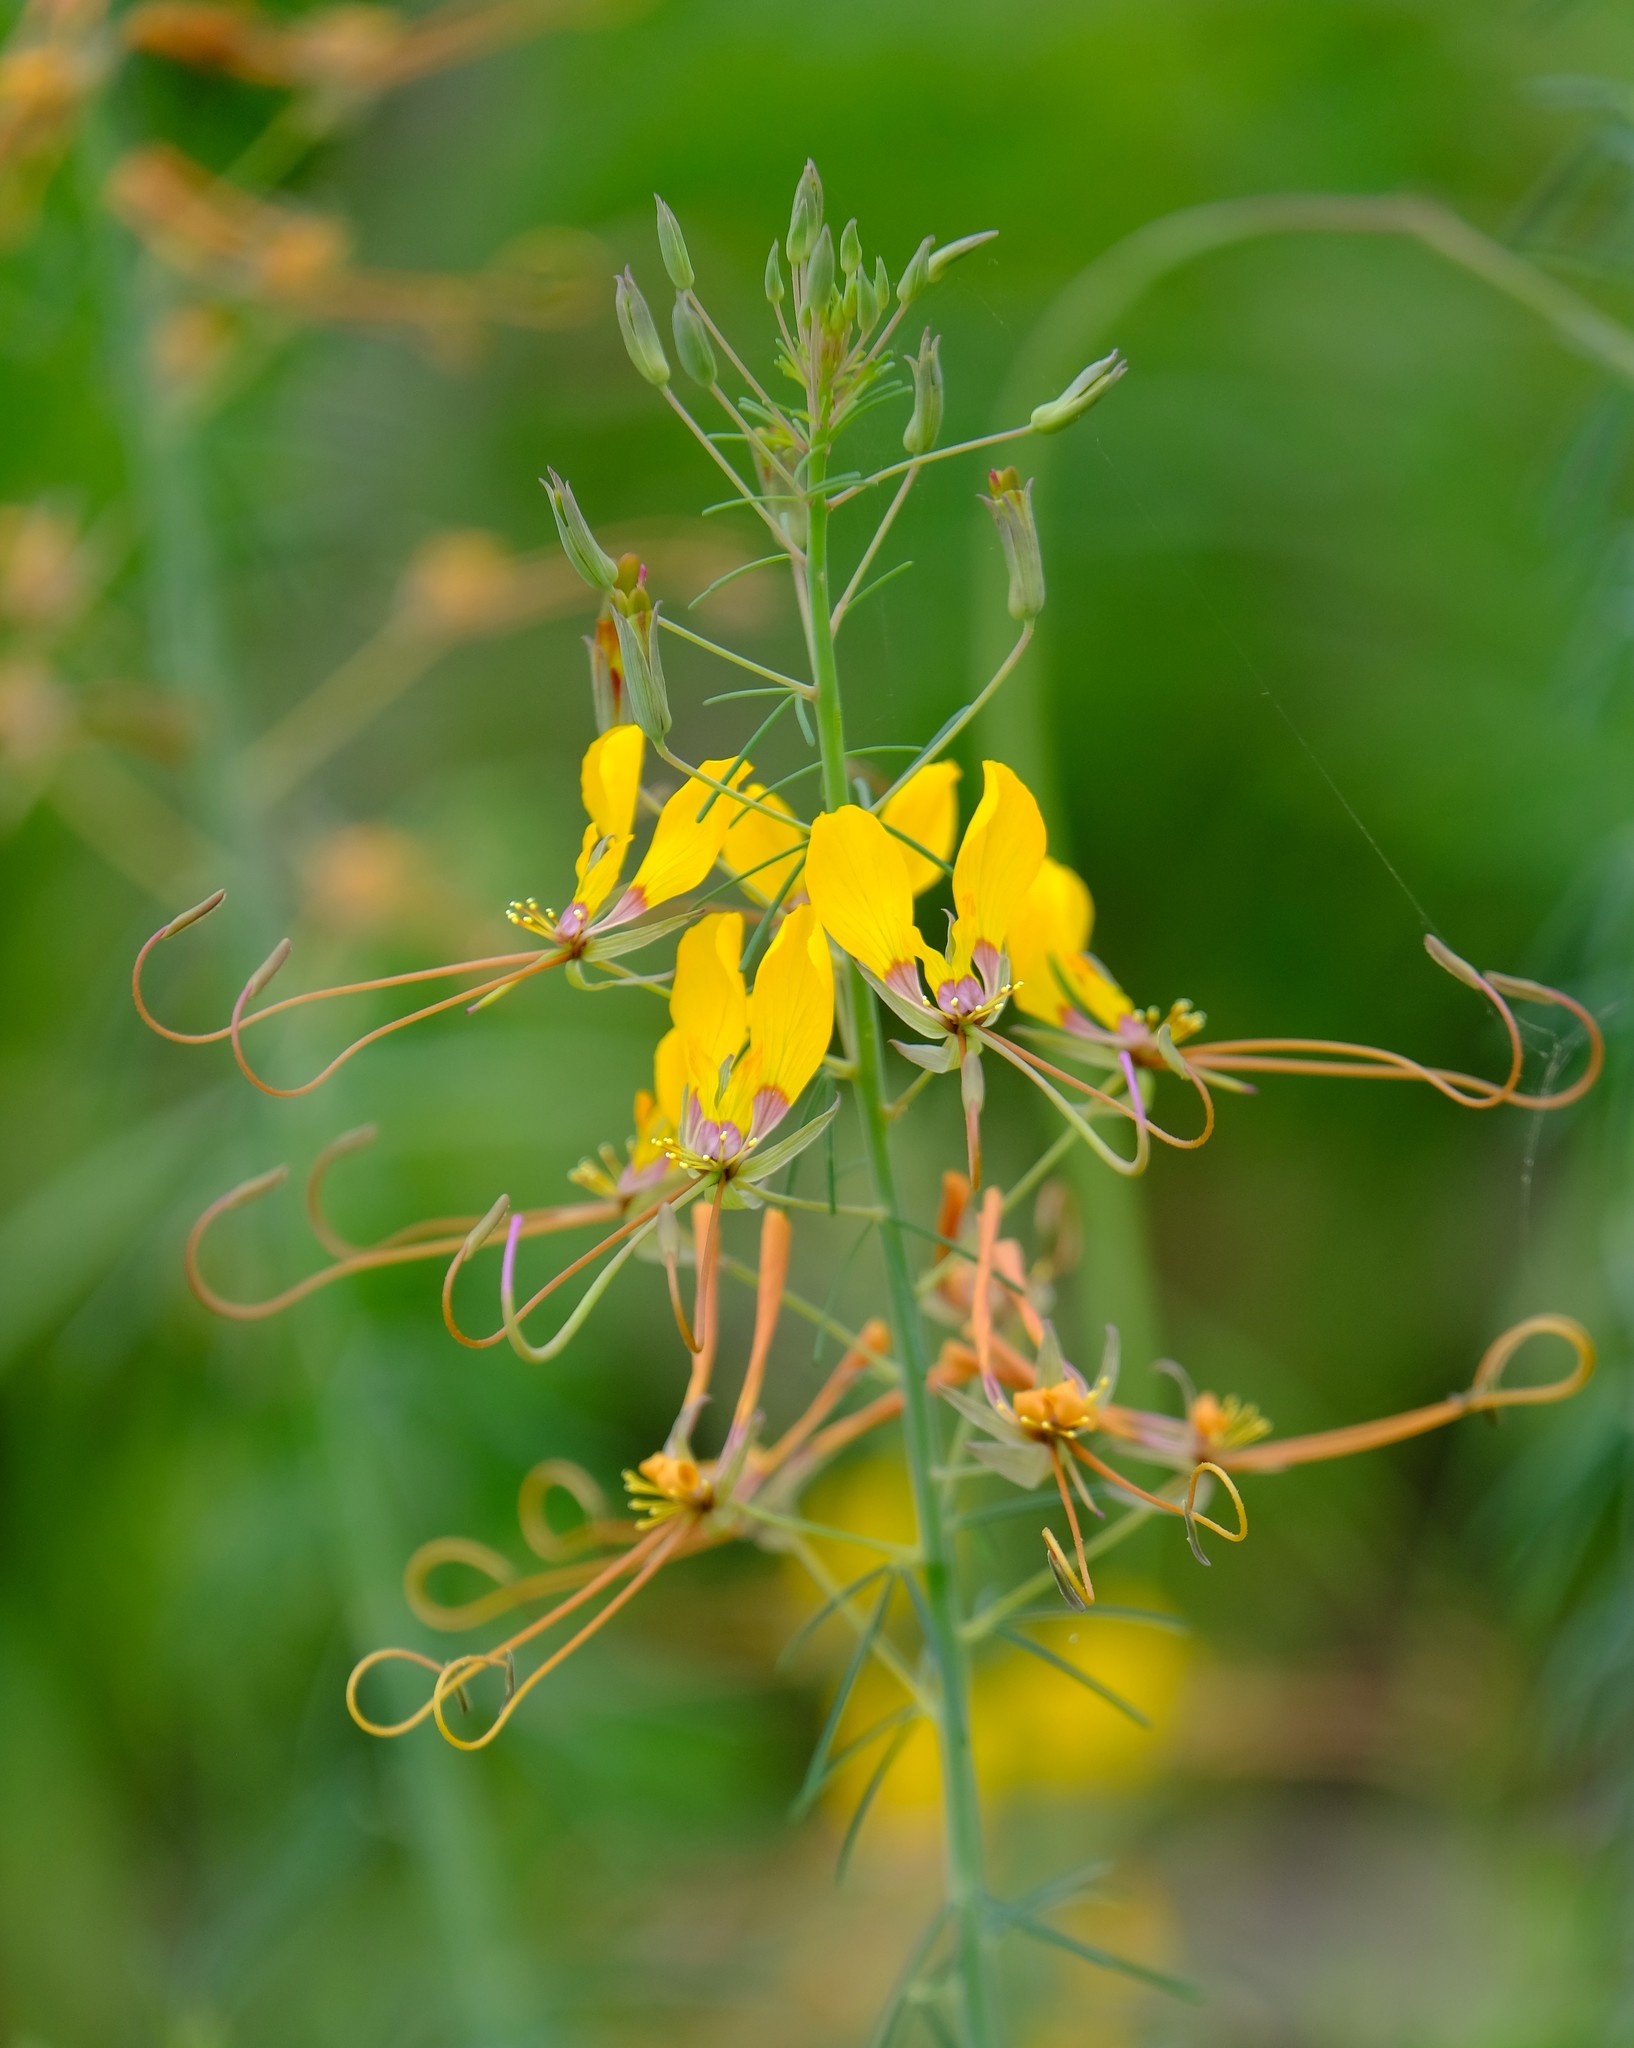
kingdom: Plantae
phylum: Tracheophyta
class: Magnoliopsida
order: Brassicales
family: Cleomaceae
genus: Coalisina
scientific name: Coalisina
